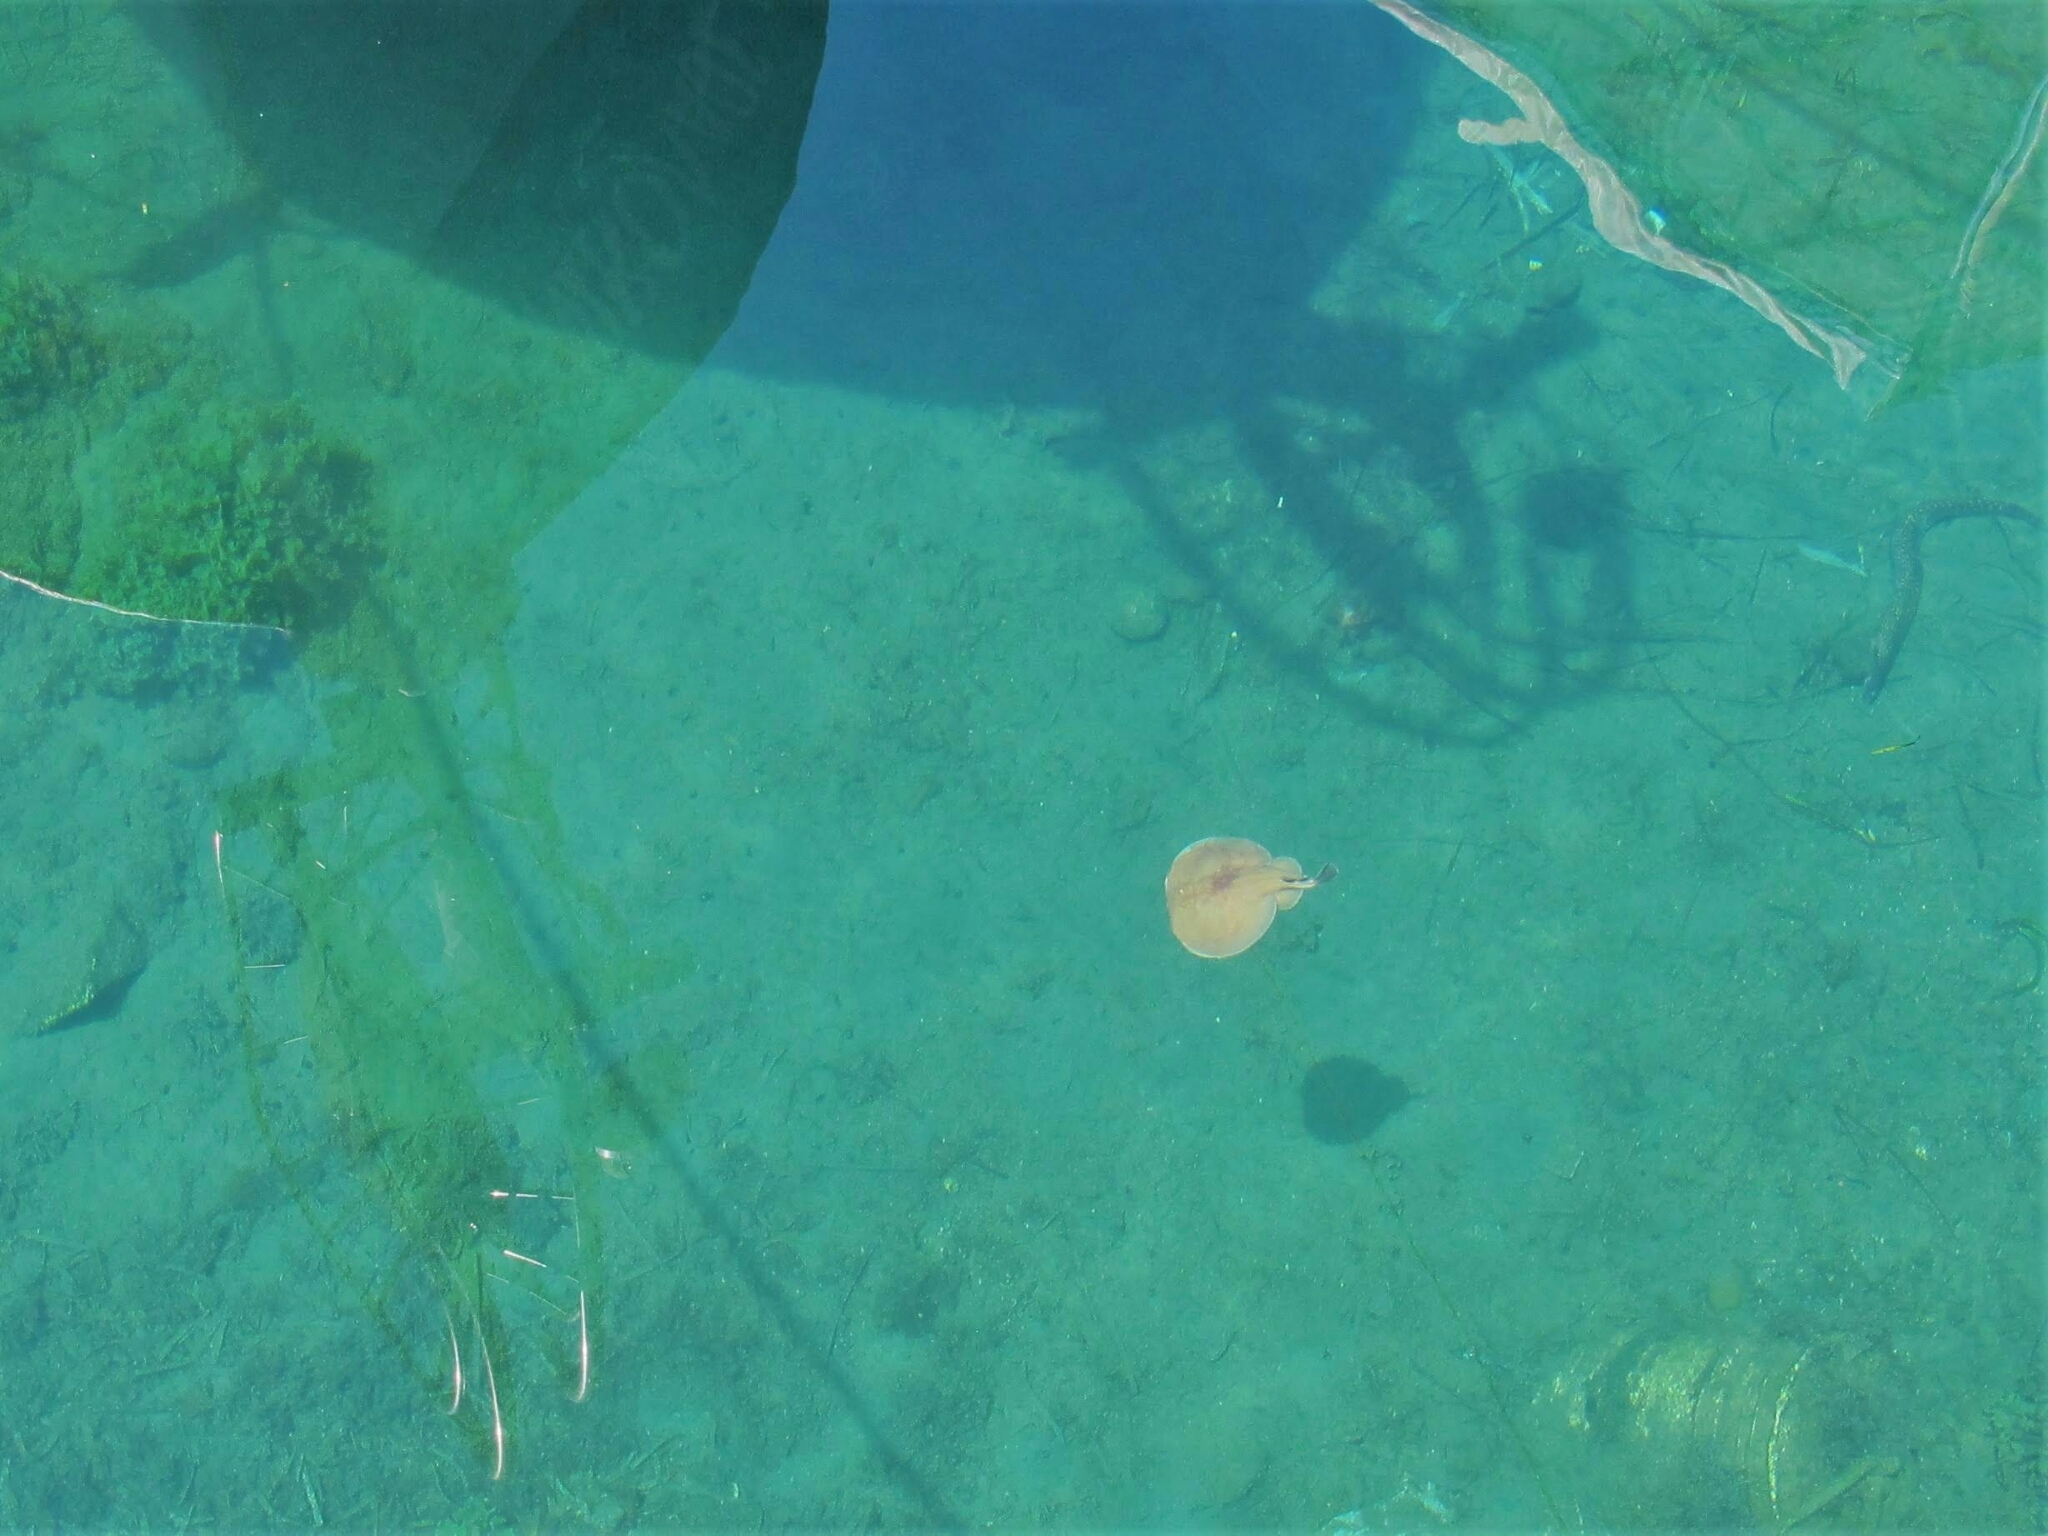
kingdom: Animalia
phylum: Chordata
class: Elasmobranchii
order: Torpediniformes
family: Torpedinidae
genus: Torpedo
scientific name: Torpedo marmorata
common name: Marbled electric ray
